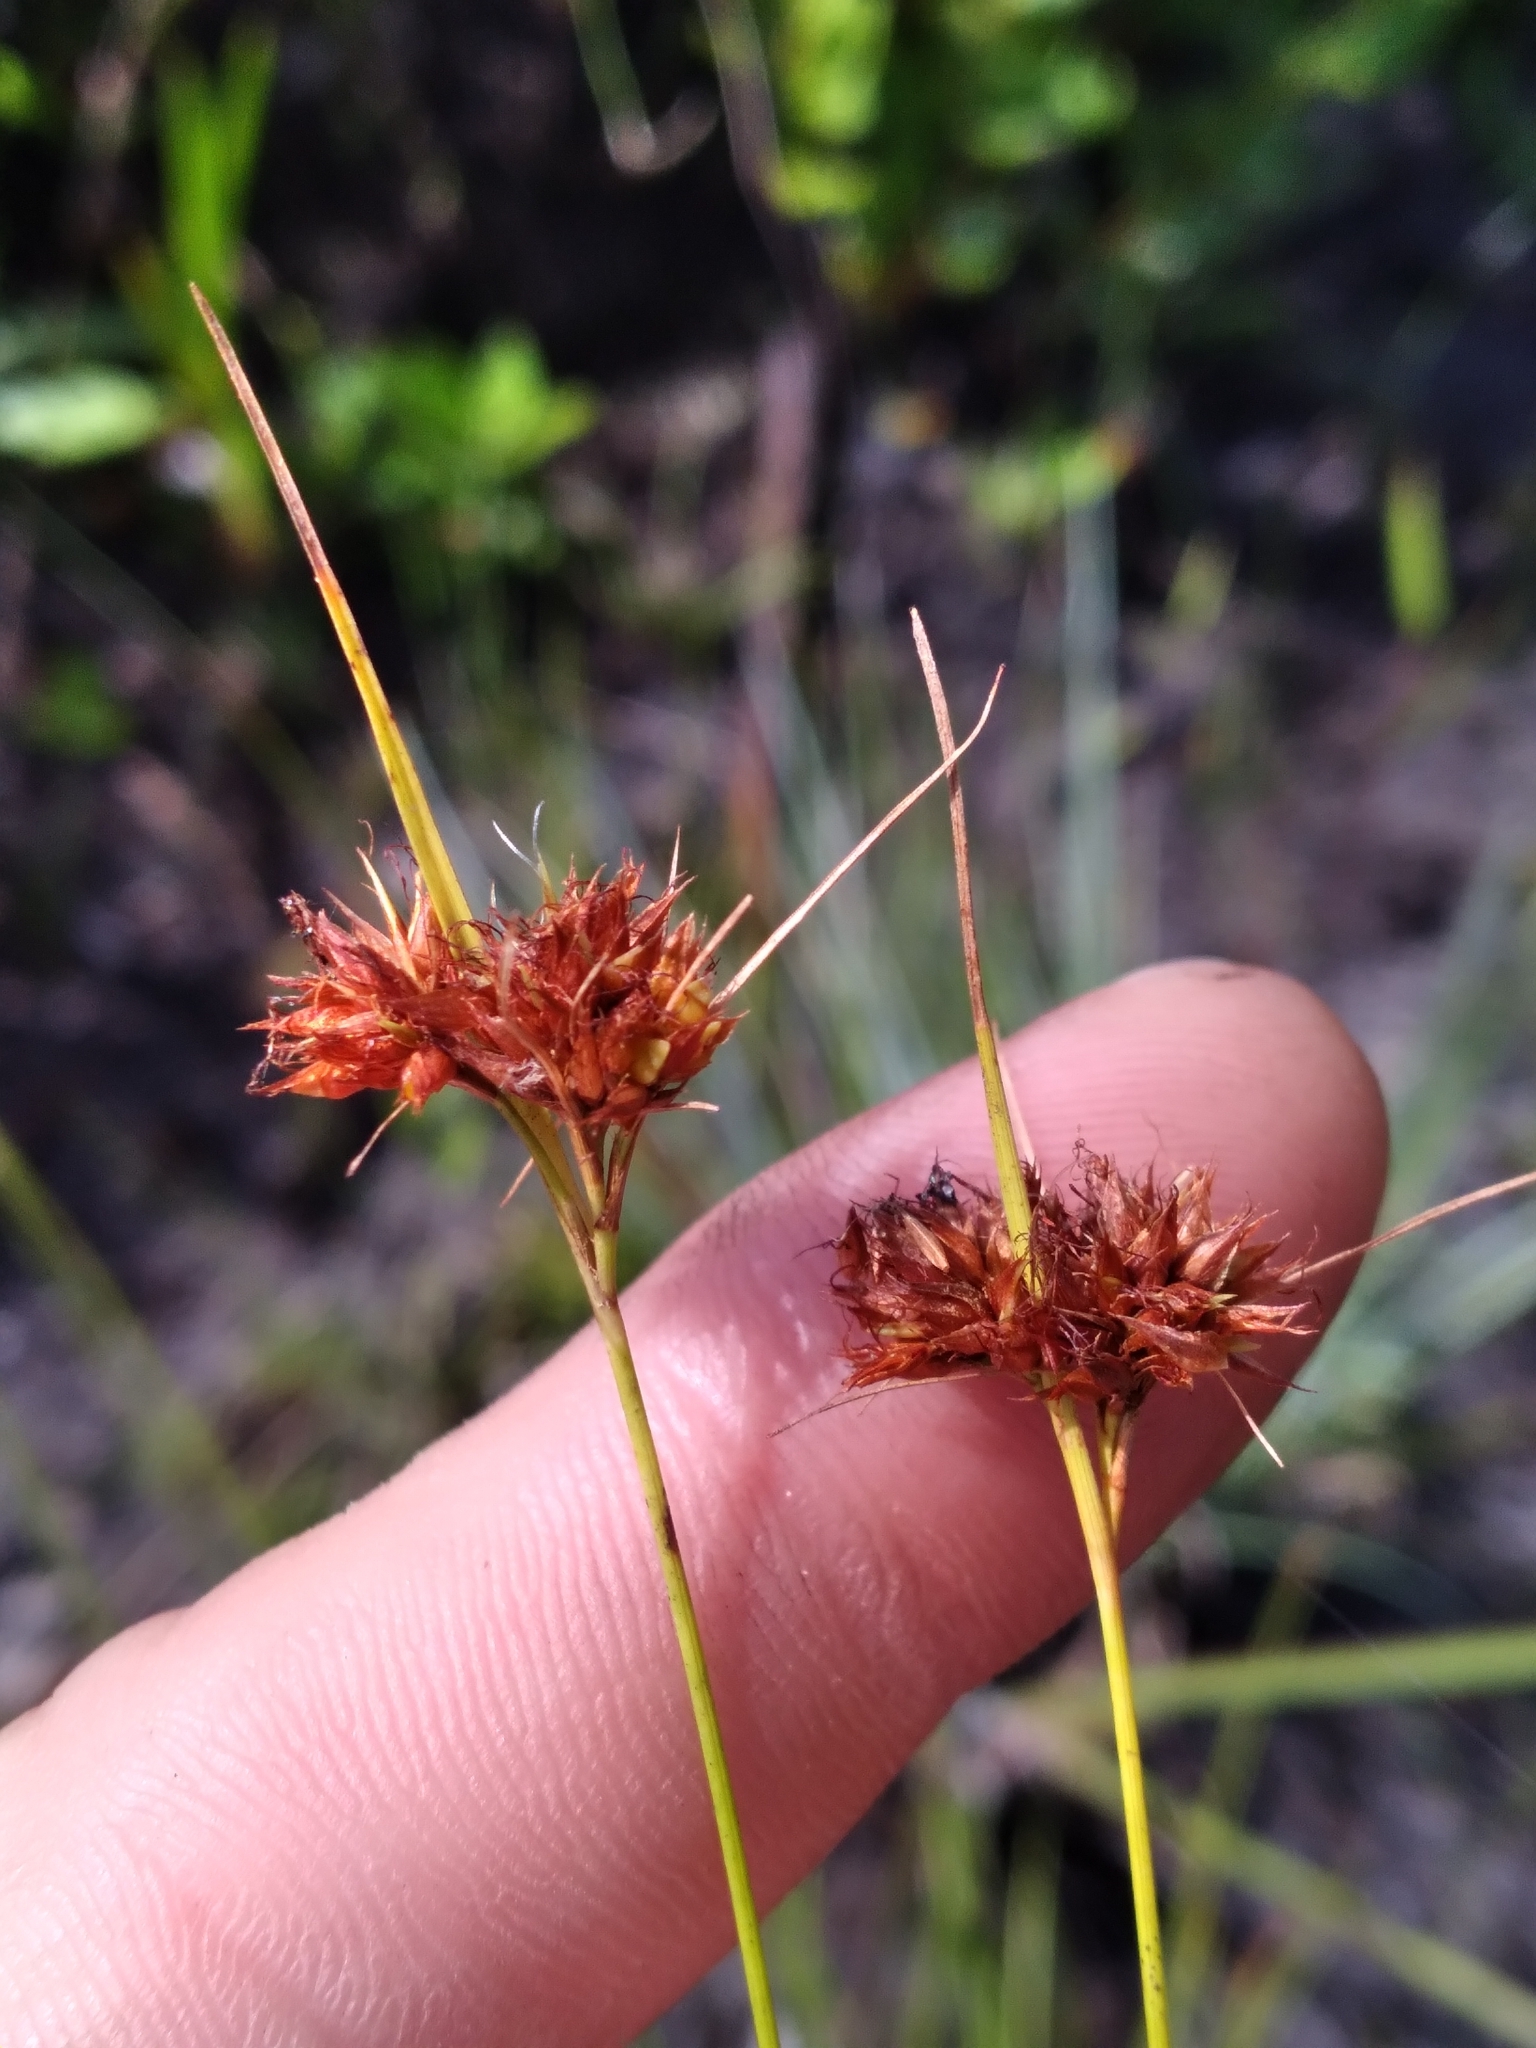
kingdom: Plantae
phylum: Tracheophyta
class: Liliopsida
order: Poales
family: Cyperaceae
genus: Rhynchospora
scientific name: Rhynchospora fascicularis
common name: Fascicled beak sedge
